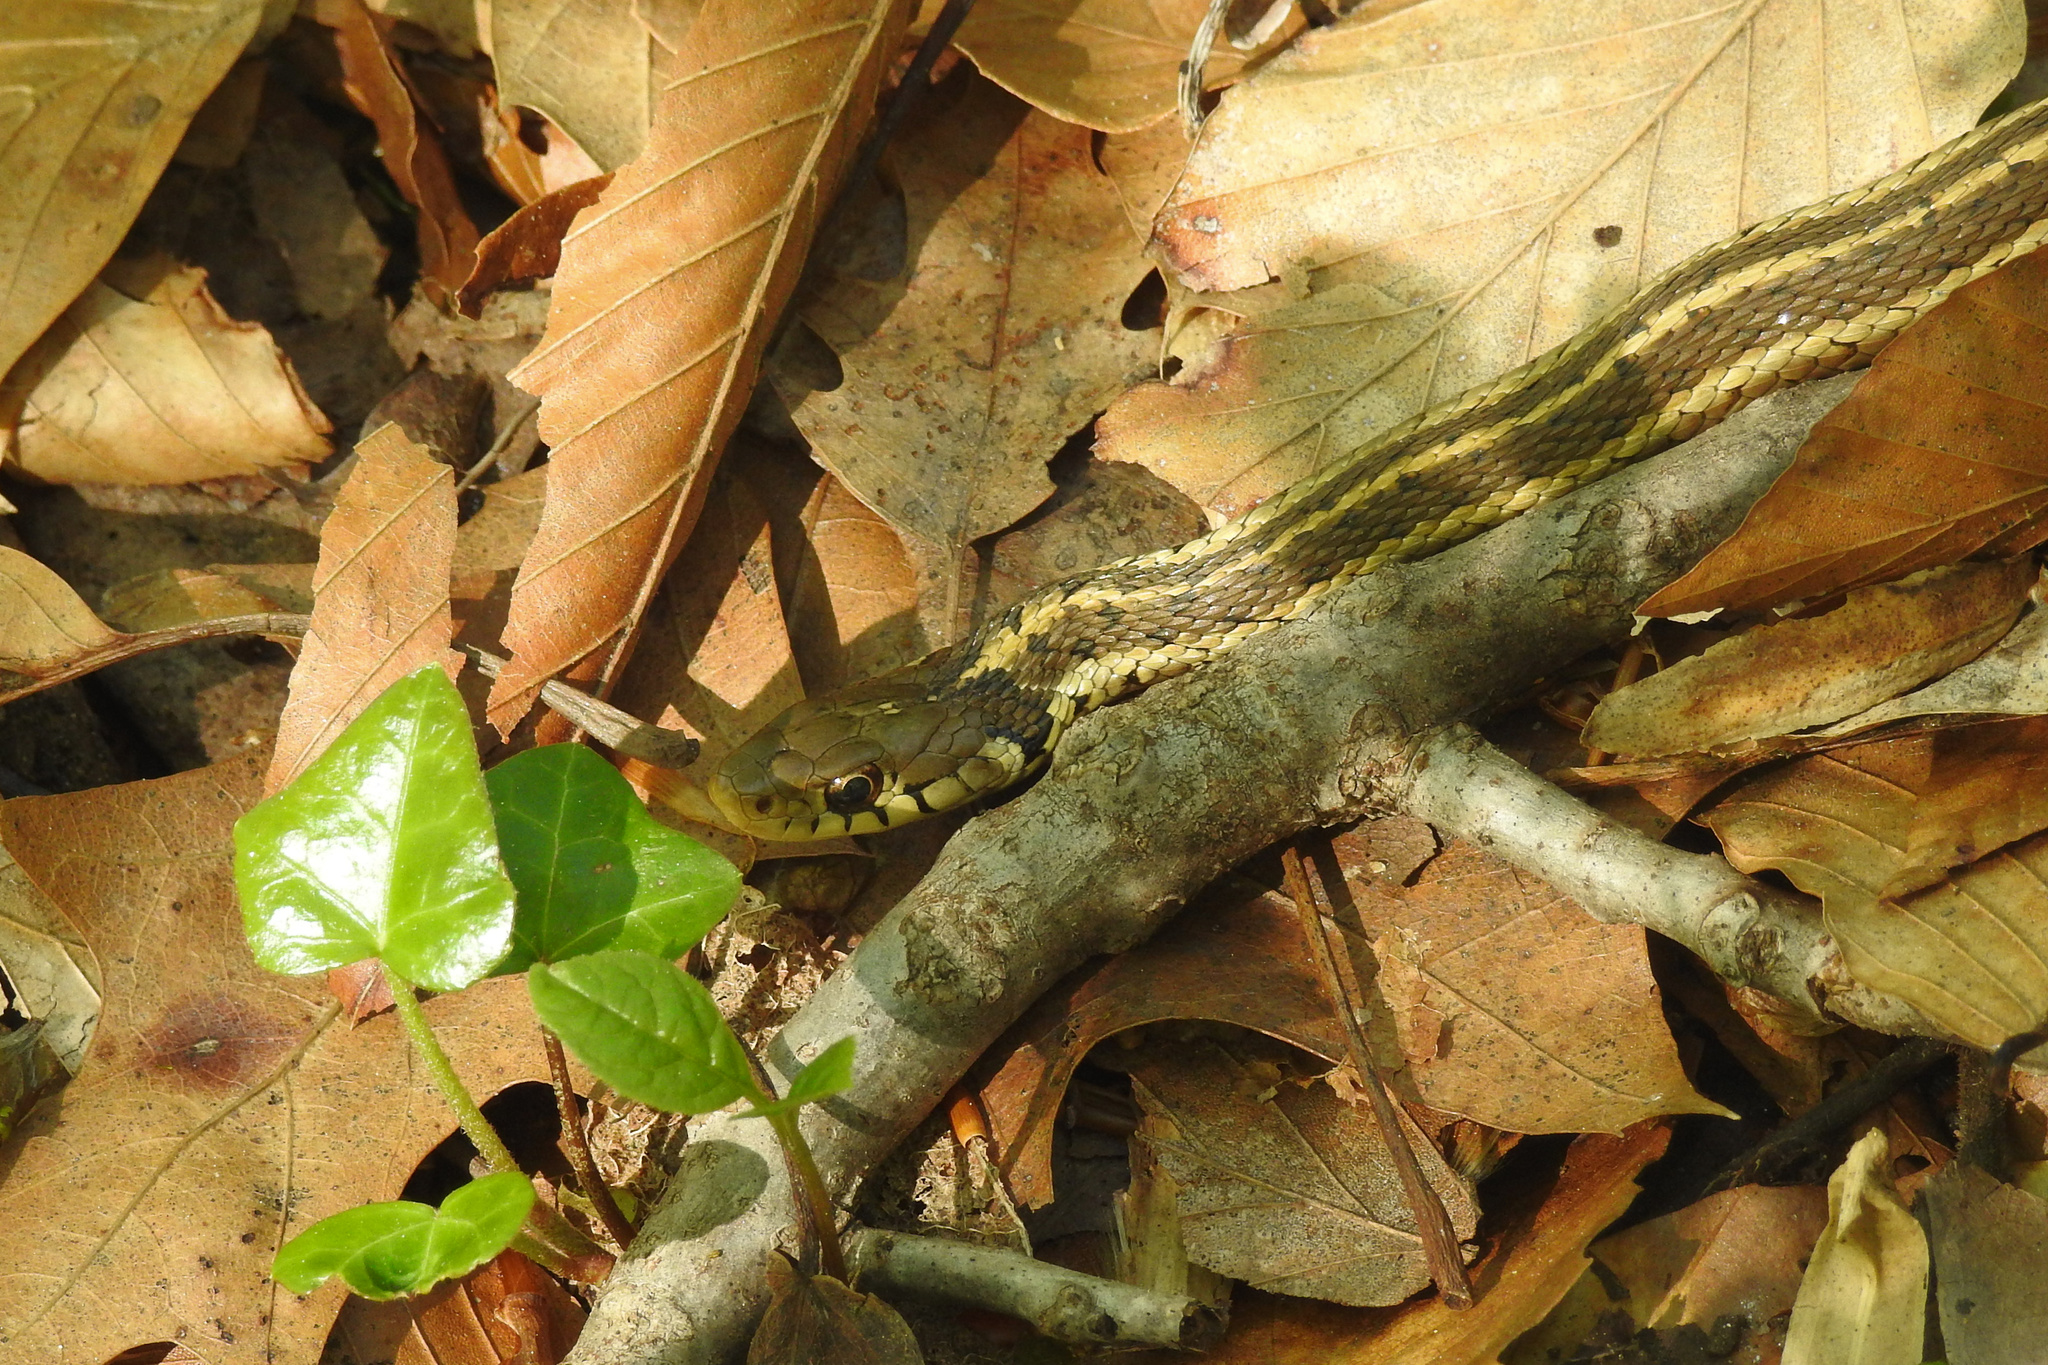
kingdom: Animalia
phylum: Chordata
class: Squamata
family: Colubridae
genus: Thamnophis
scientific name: Thamnophis sirtalis
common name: Common garter snake
